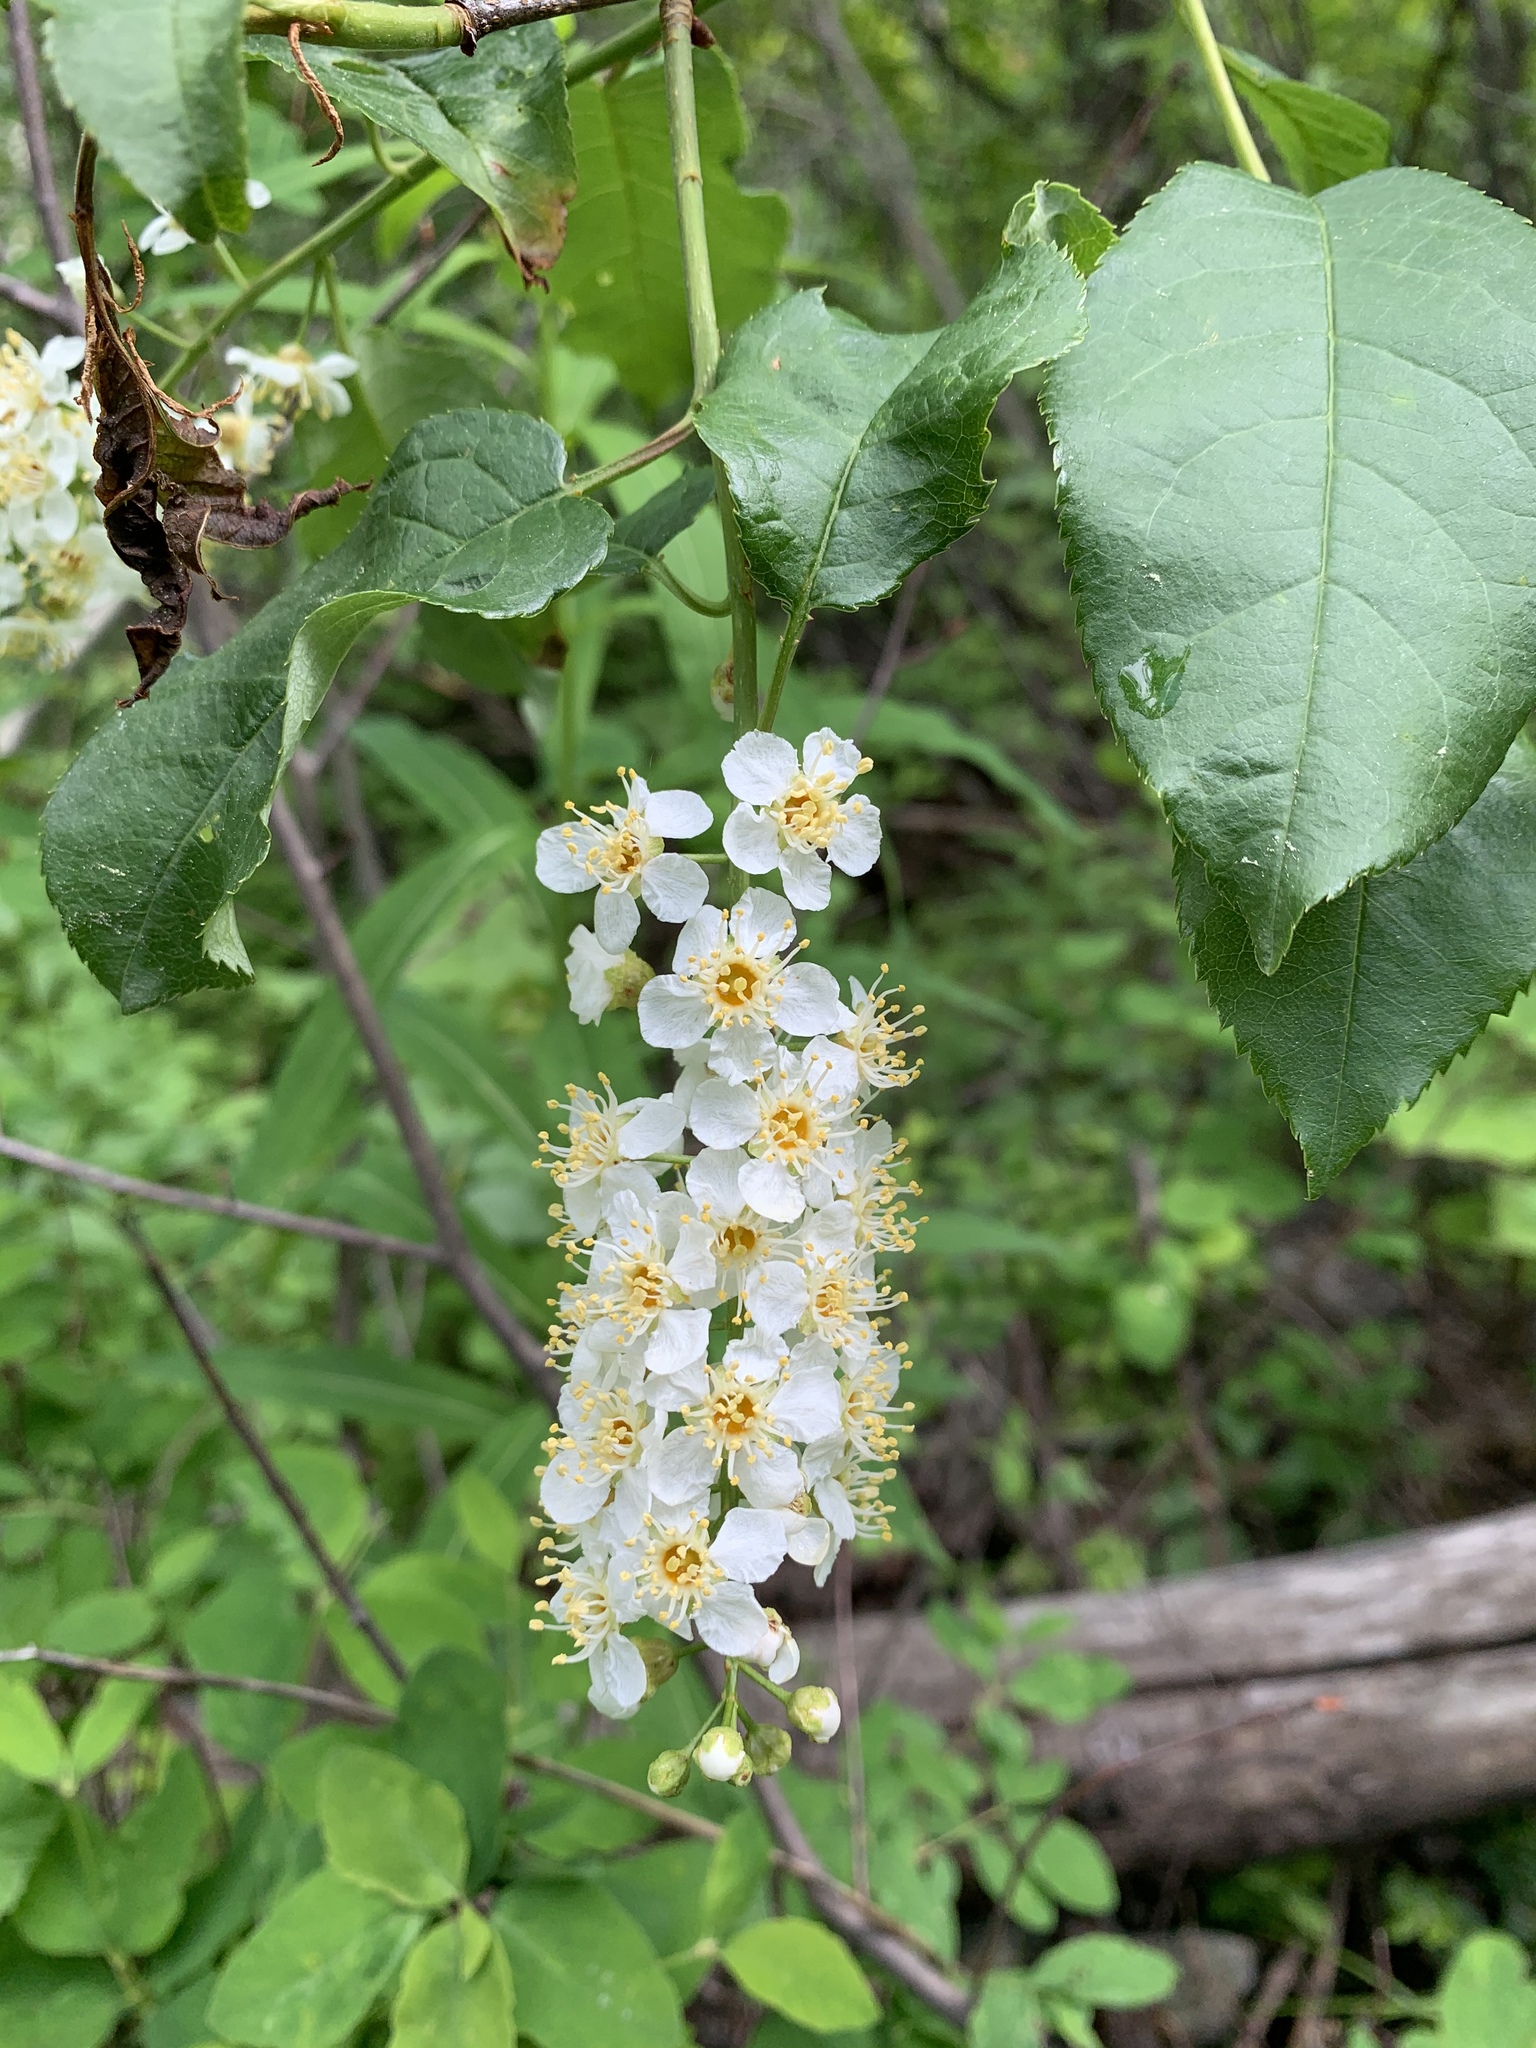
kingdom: Plantae
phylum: Tracheophyta
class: Magnoliopsida
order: Rosales
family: Rosaceae
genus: Prunus
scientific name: Prunus virginiana
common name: Chokecherry
